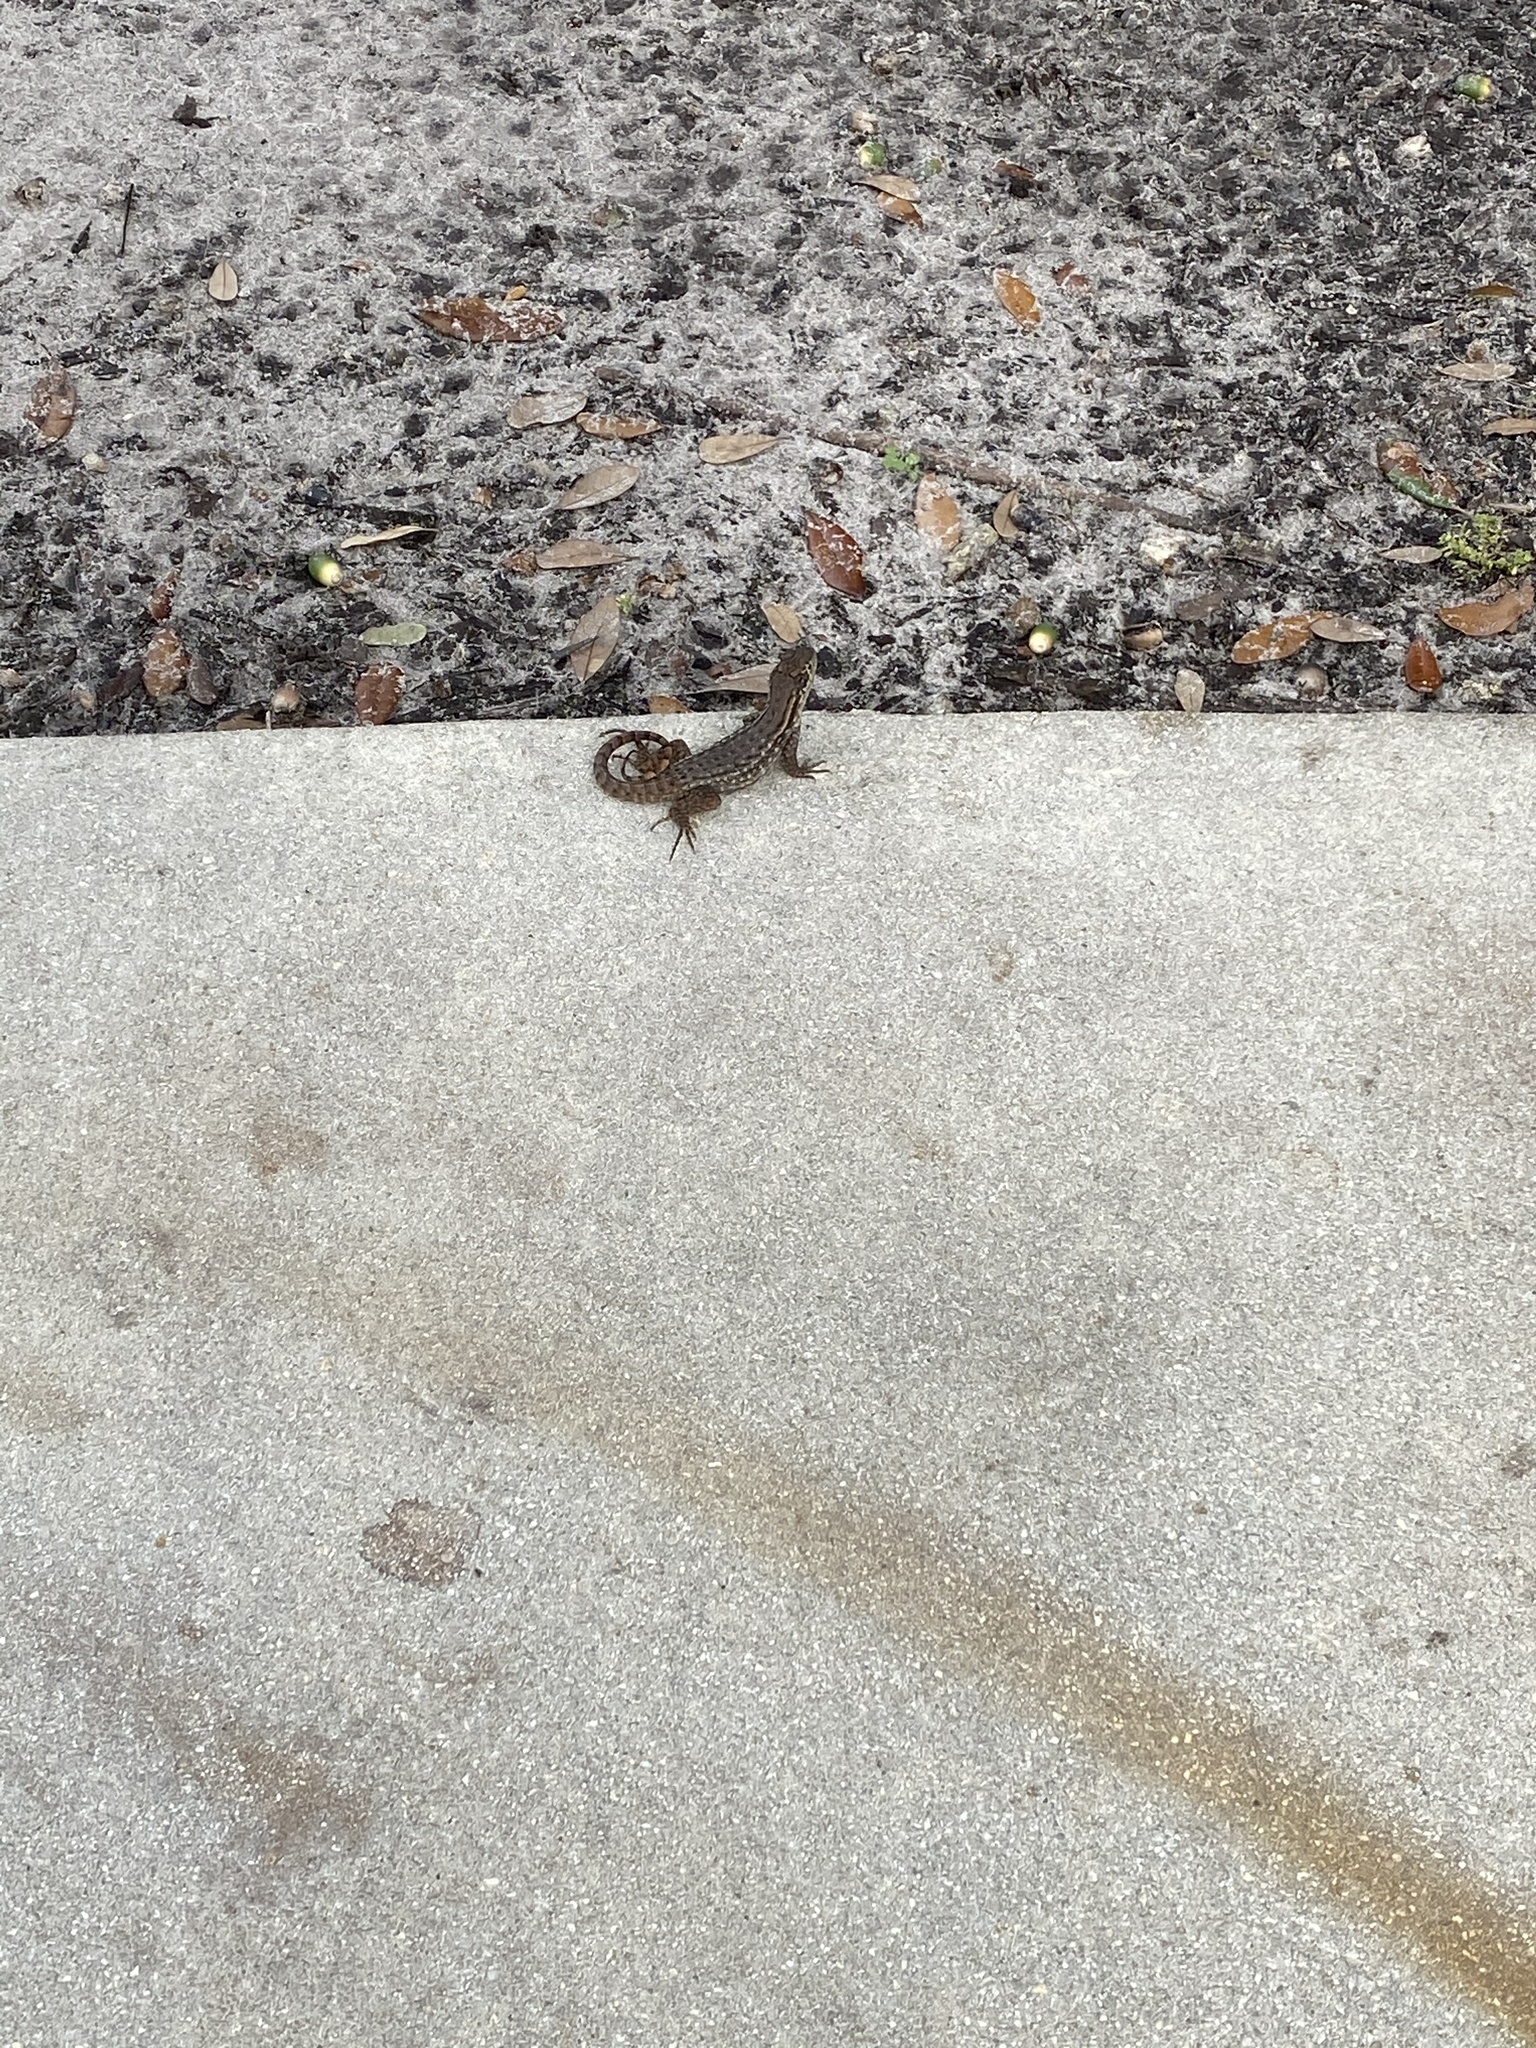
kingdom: Animalia
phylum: Chordata
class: Squamata
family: Leiocephalidae
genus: Leiocephalus
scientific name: Leiocephalus carinatus
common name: Northern curly-tailed lizard
